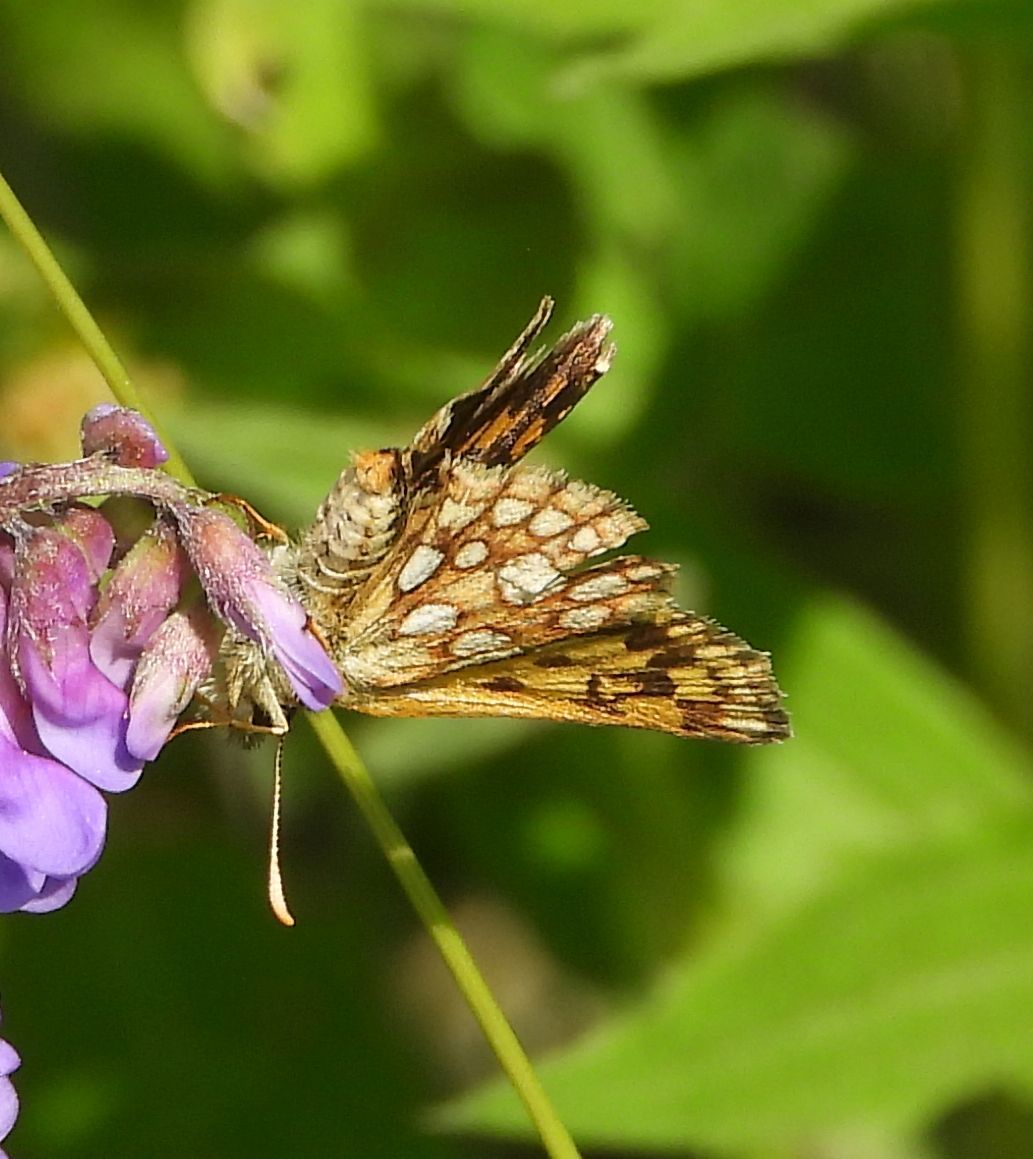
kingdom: Animalia
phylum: Arthropoda
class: Insecta
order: Lepidoptera
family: Hesperiidae
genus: Carterocephalus
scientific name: Carterocephalus mandan
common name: Arctic skipperling
